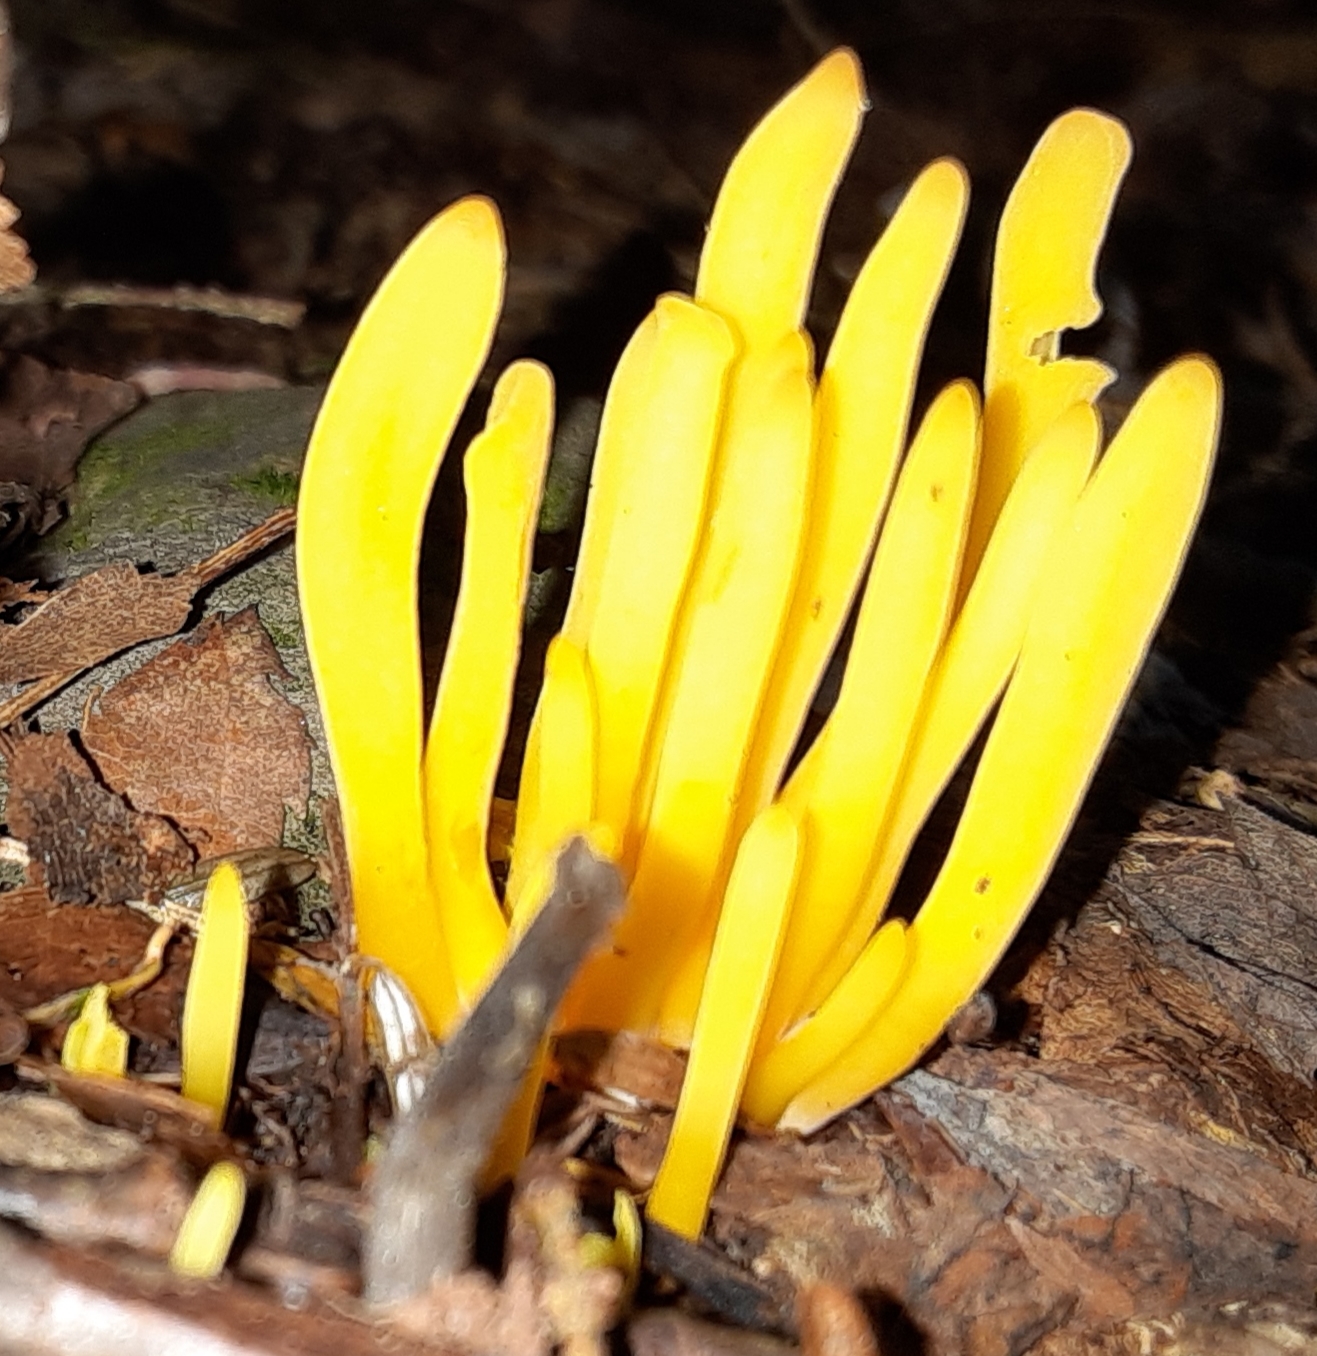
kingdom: Fungi
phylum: Basidiomycota
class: Agaricomycetes
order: Agaricales
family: Clavariaceae
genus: Clavulinopsis
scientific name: Clavulinopsis fusiformis
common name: Golden spindles
